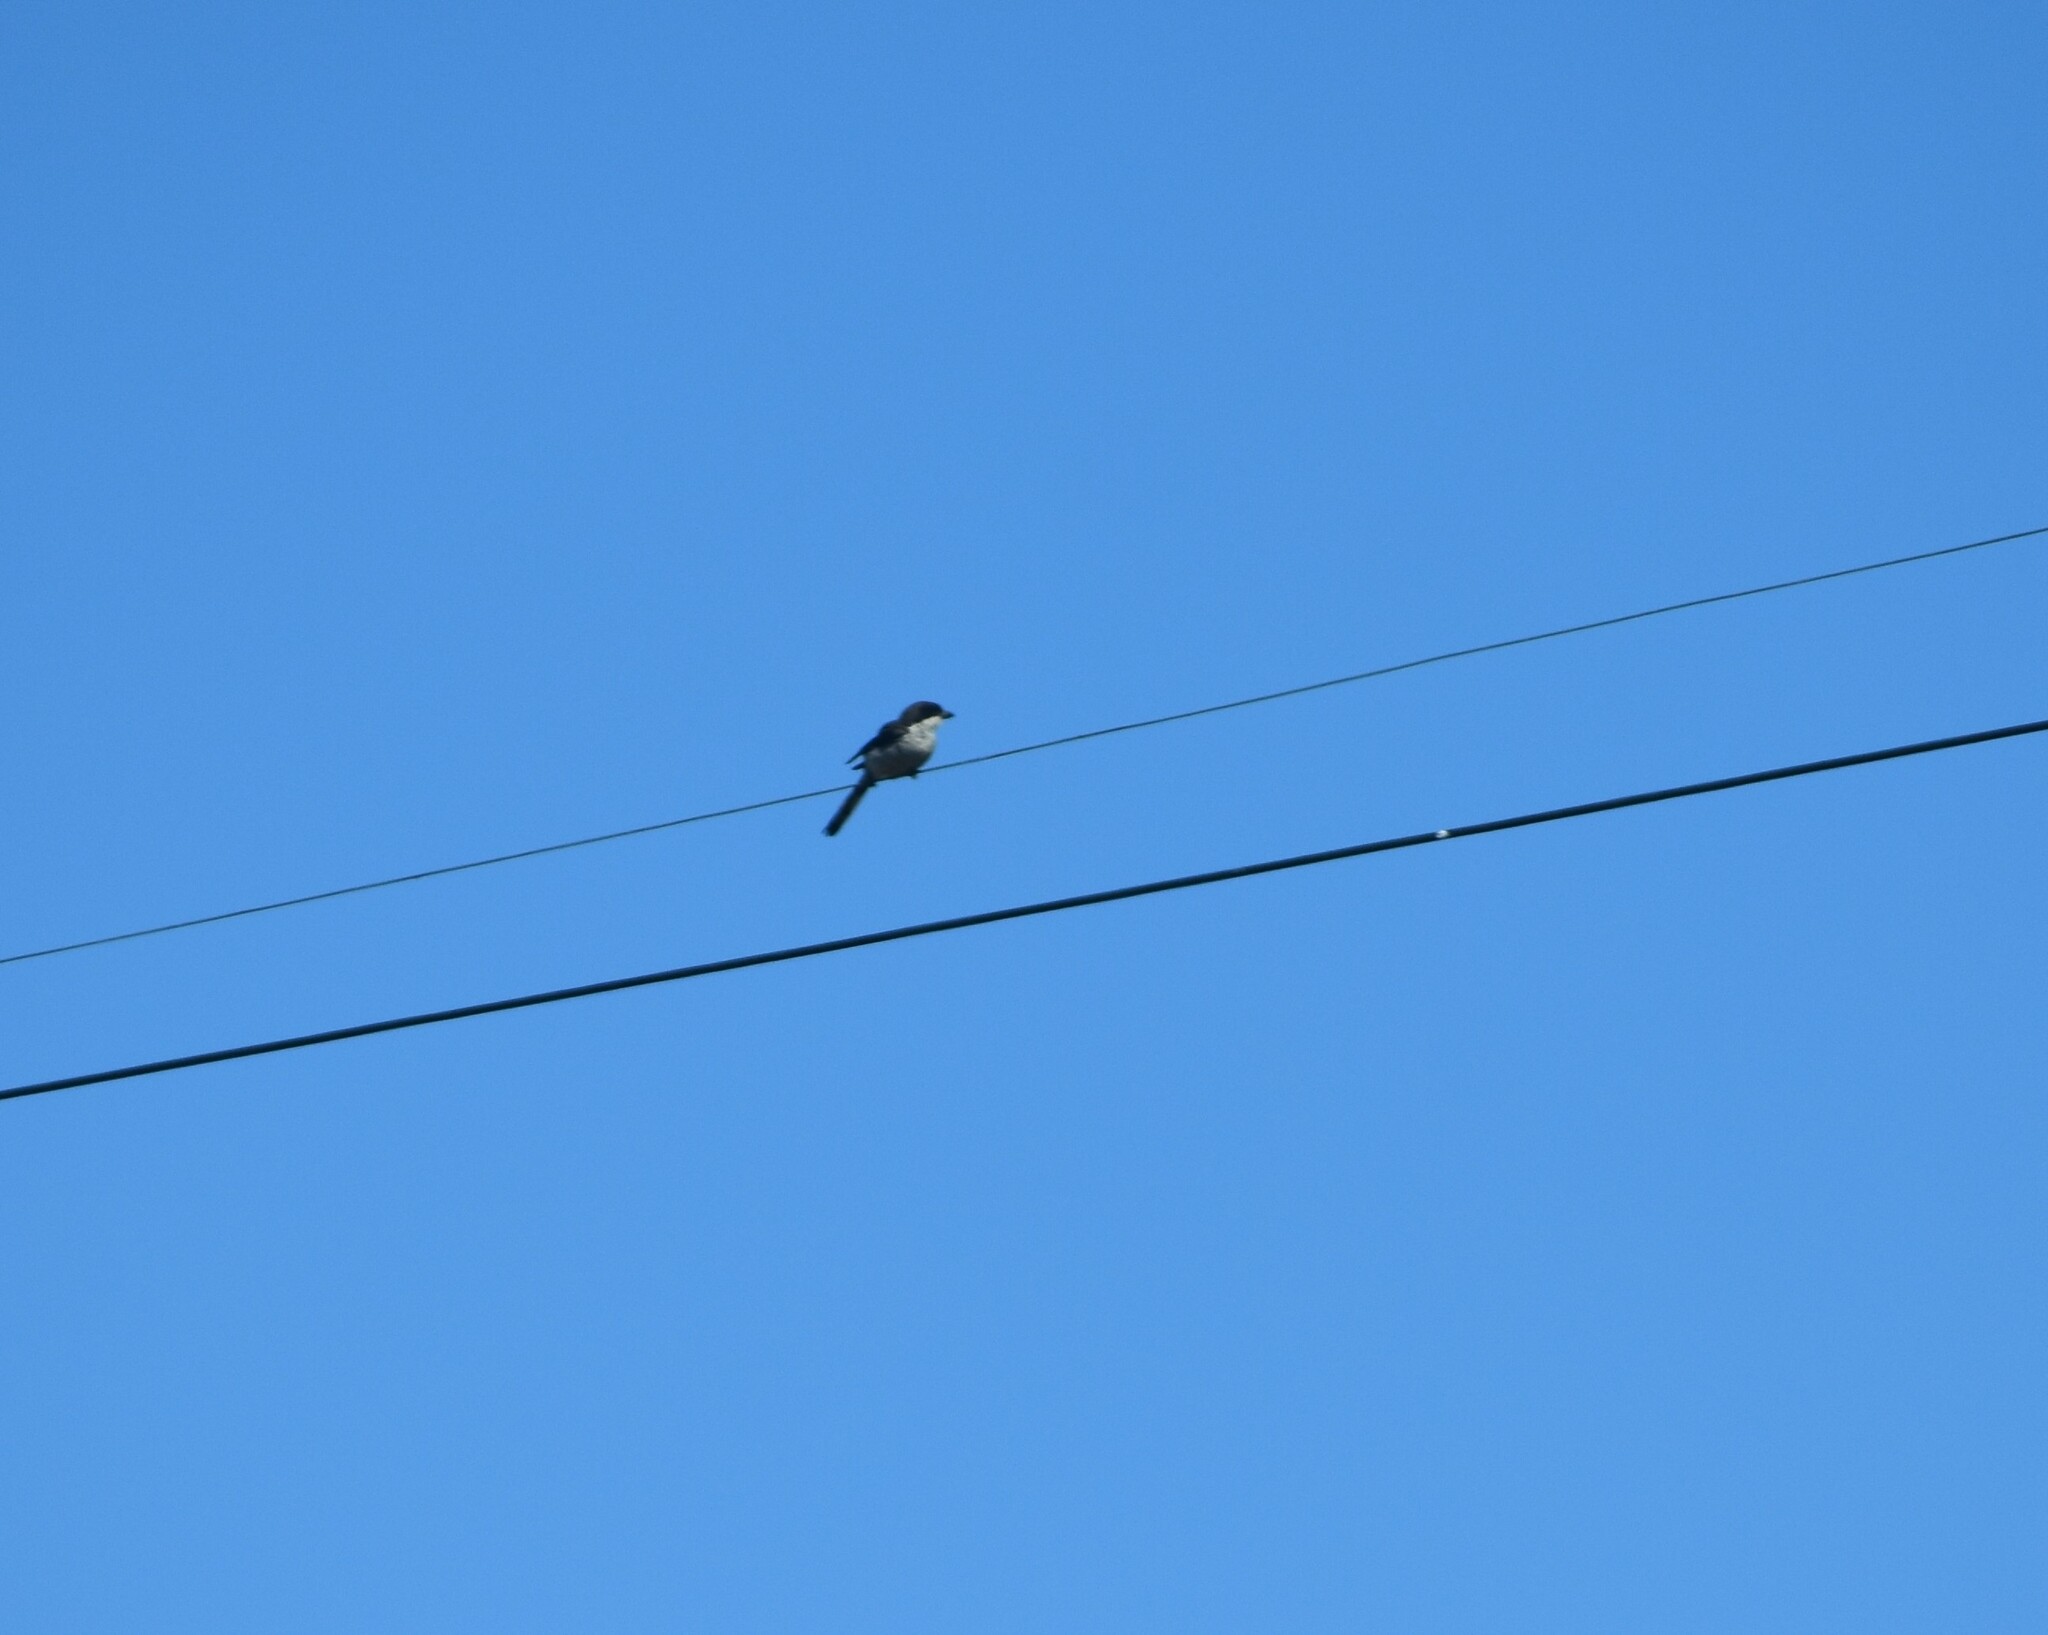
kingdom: Animalia
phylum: Chordata
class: Aves
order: Passeriformes
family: Laniidae
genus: Lanius
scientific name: Lanius collaris
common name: Southern fiscal
